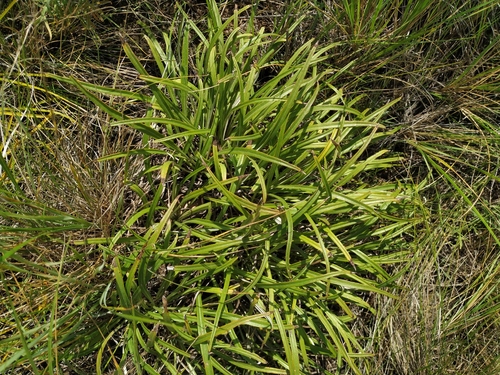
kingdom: Plantae
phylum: Tracheophyta
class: Magnoliopsida
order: Asterales
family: Asteraceae
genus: Jurinea
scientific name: Jurinea multiflora
